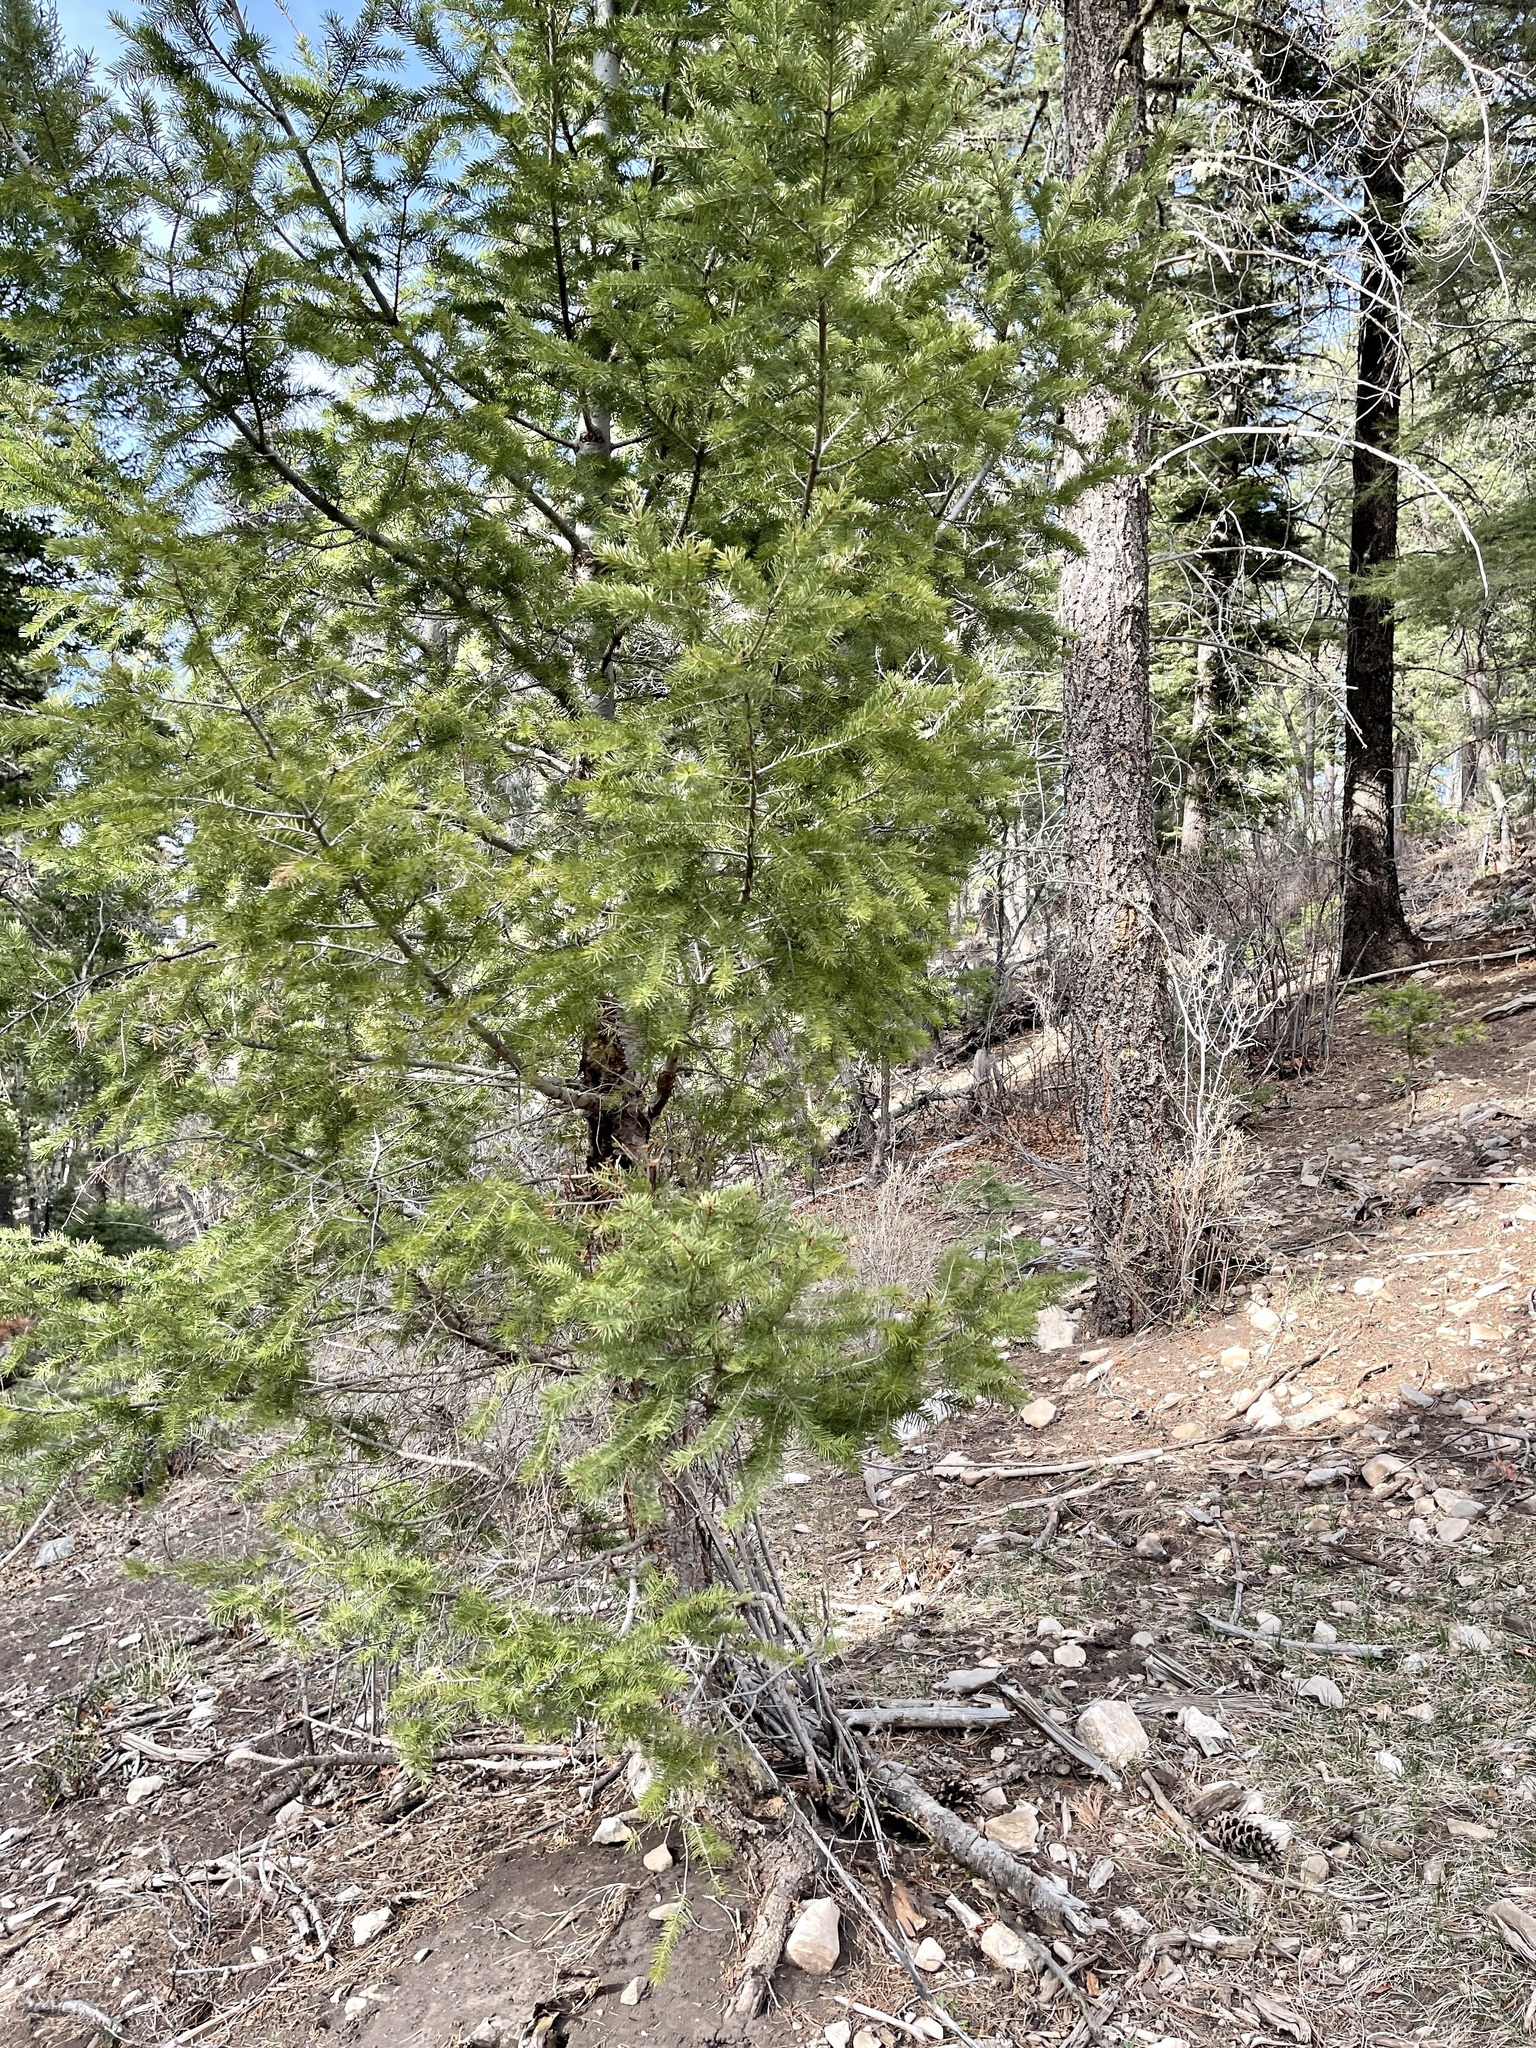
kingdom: Plantae
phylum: Tracheophyta
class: Pinopsida
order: Pinales
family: Pinaceae
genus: Pseudotsuga
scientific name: Pseudotsuga menziesii
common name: Douglas fir
